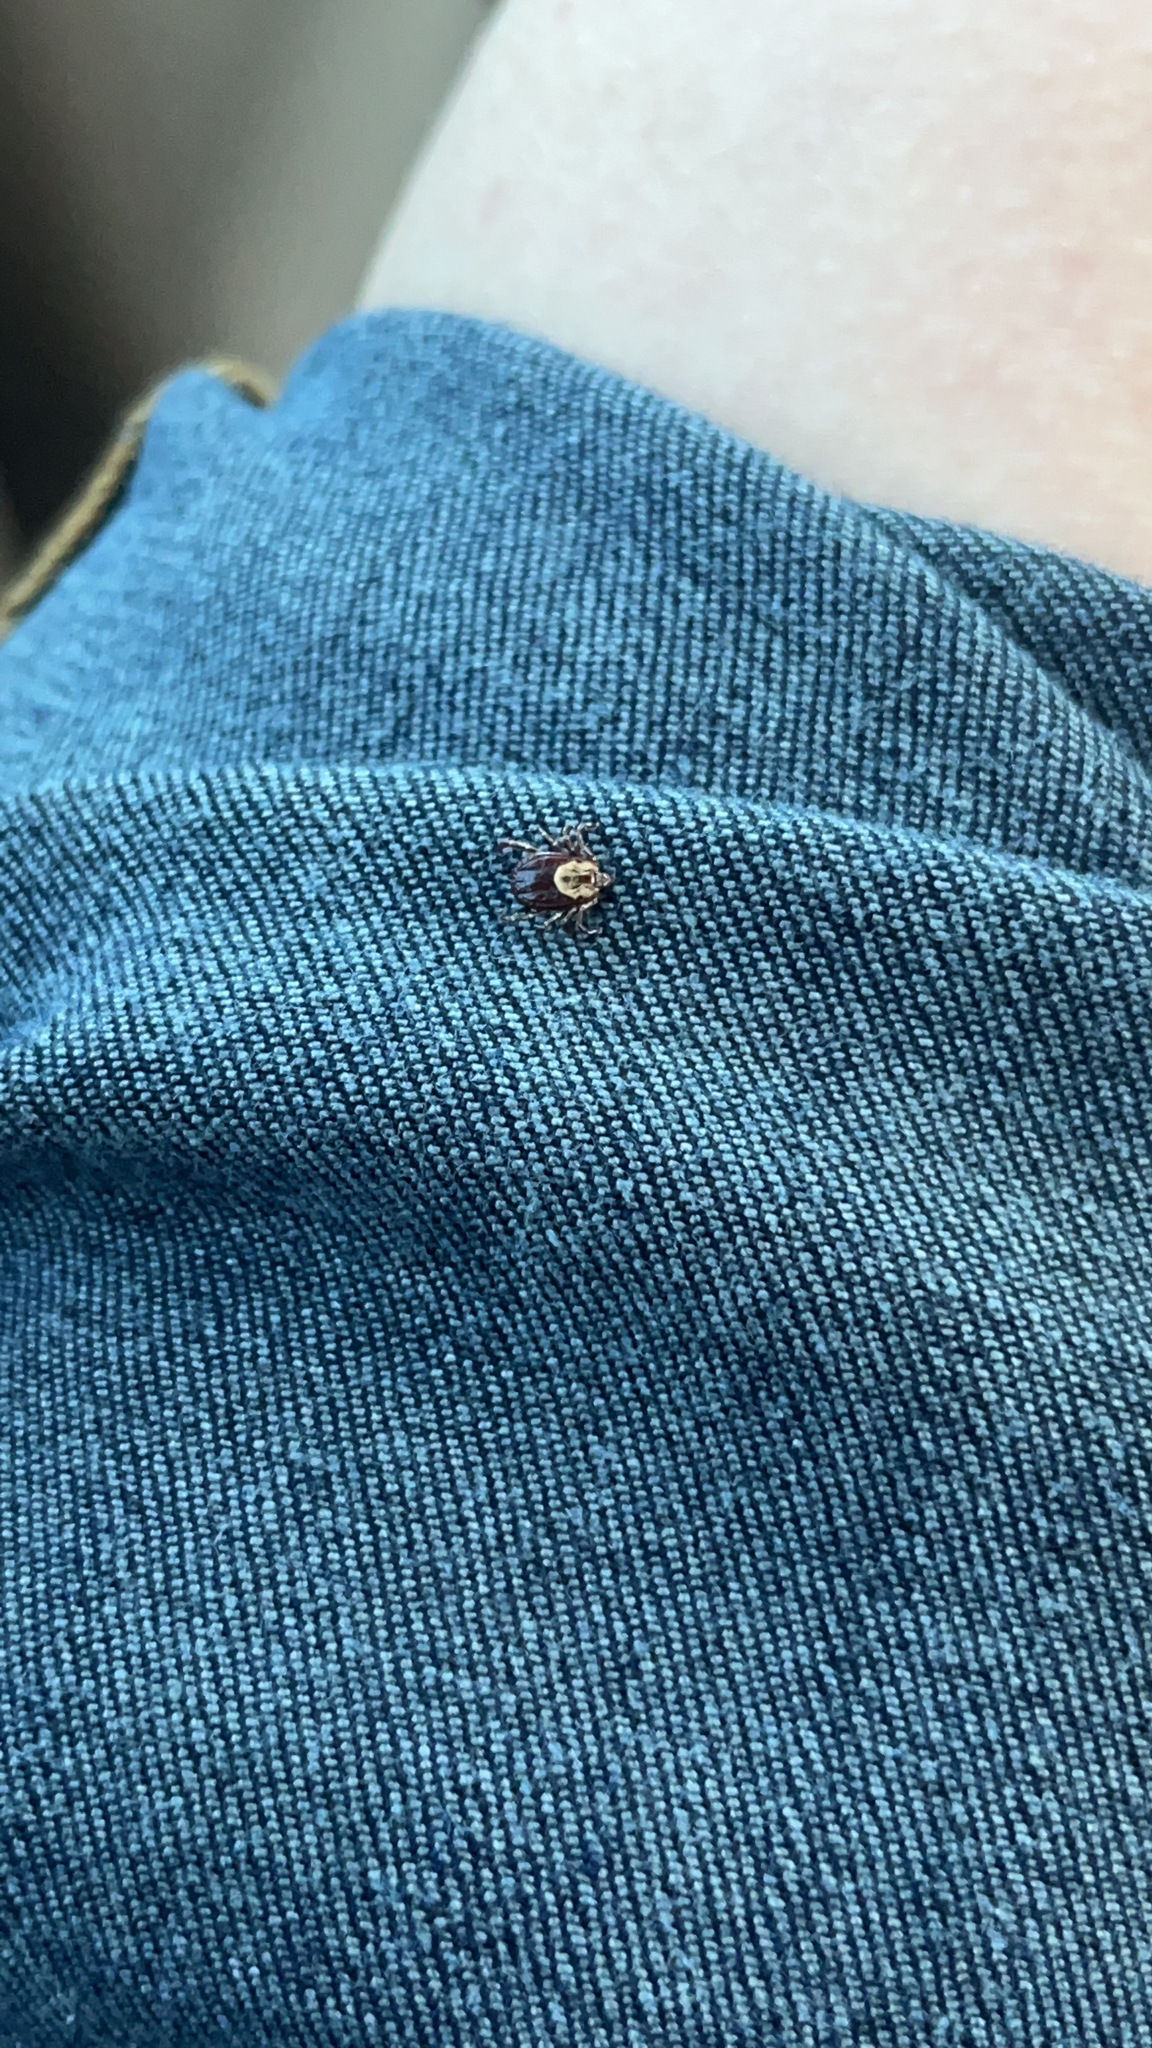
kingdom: Animalia
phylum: Arthropoda
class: Arachnida
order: Ixodida
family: Ixodidae
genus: Dermacentor
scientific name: Dermacentor variabilis
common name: American dog tick
